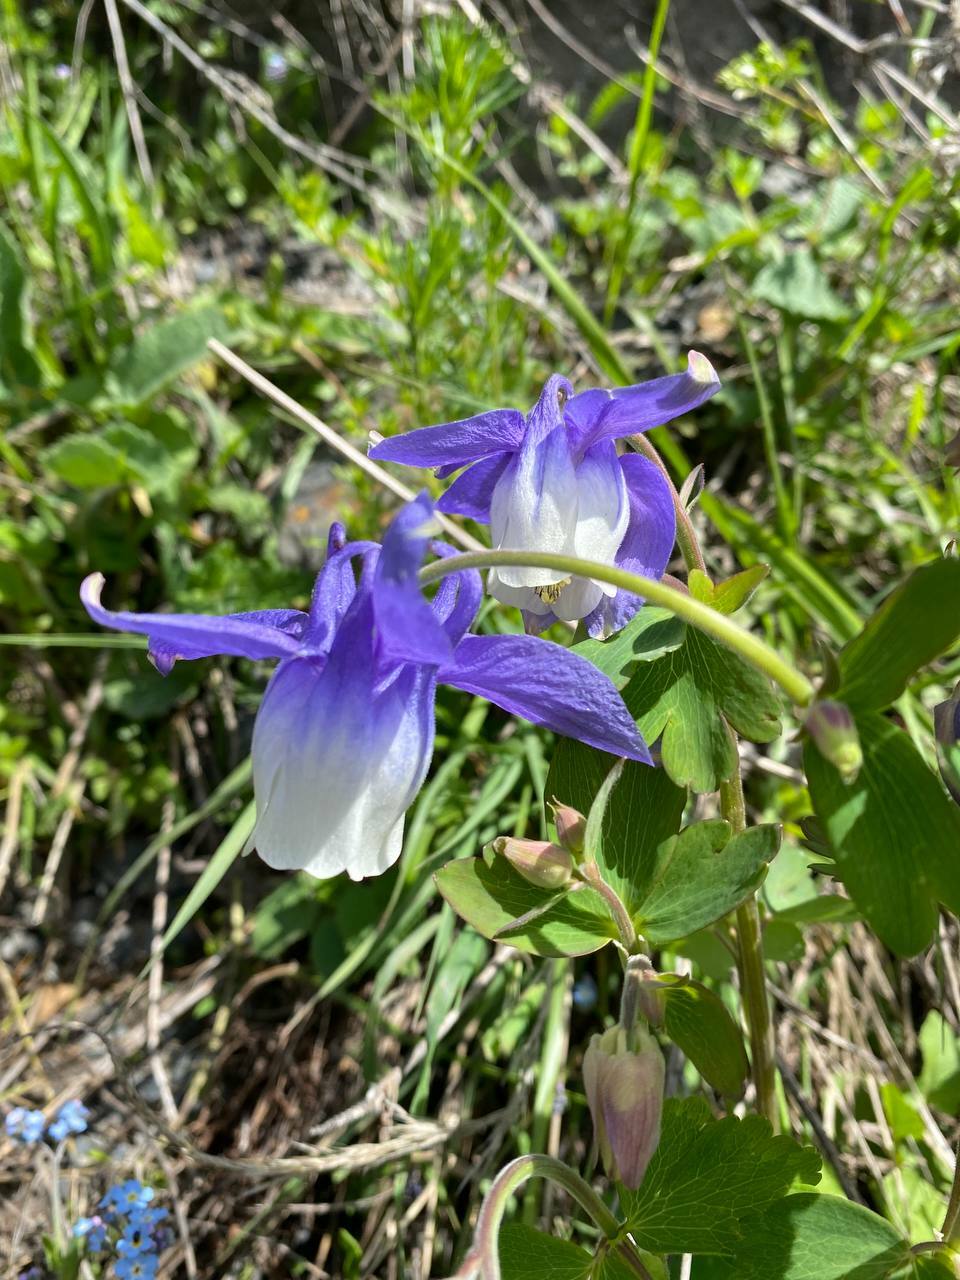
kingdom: Plantae
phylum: Tracheophyta
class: Magnoliopsida
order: Ranunculales
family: Ranunculaceae
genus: Aquilegia
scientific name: Aquilegia olympica
